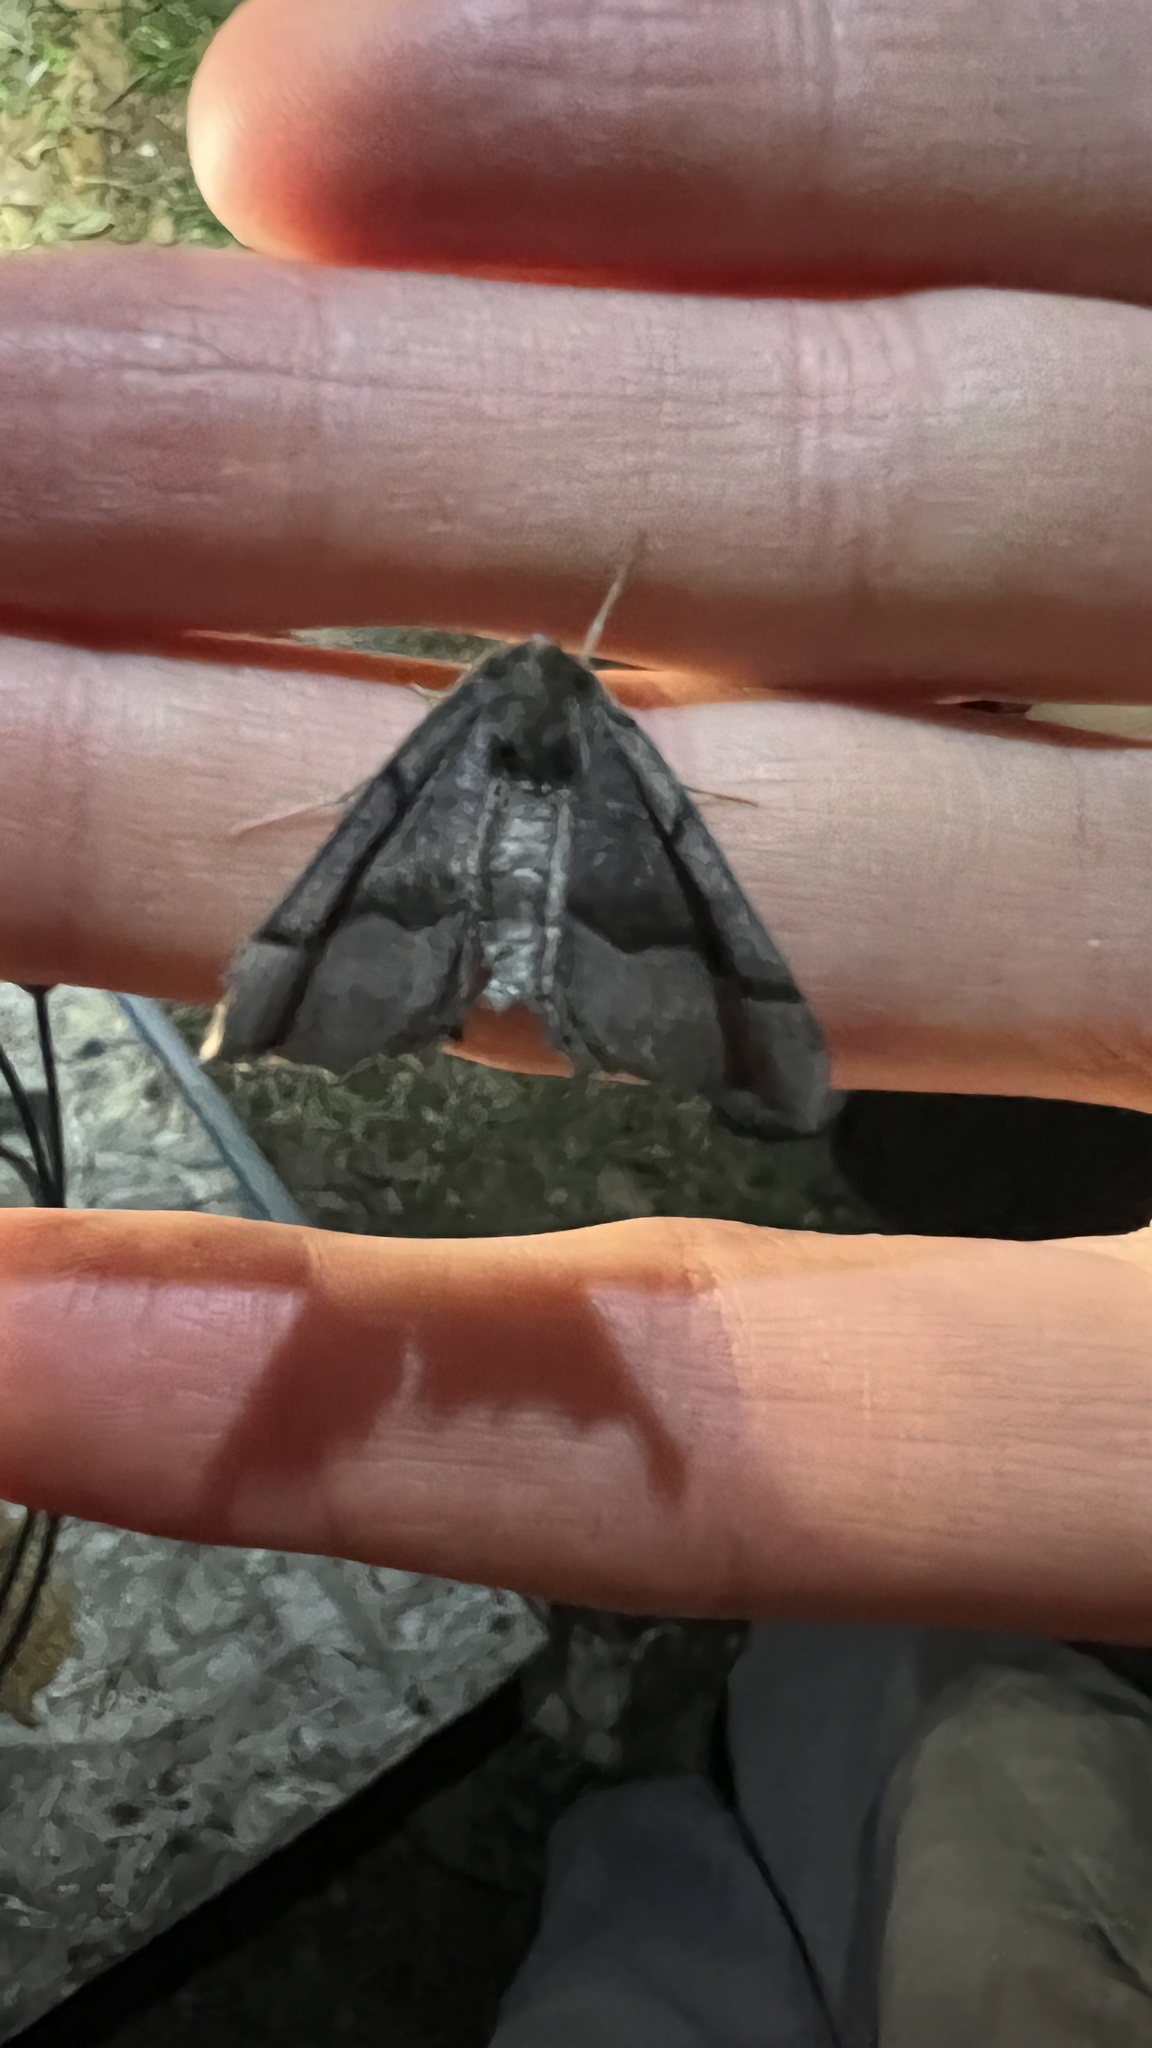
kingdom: Animalia
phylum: Arthropoda
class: Insecta
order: Lepidoptera
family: Geometridae
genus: Pero
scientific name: Pero honestaria
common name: Honest pero
